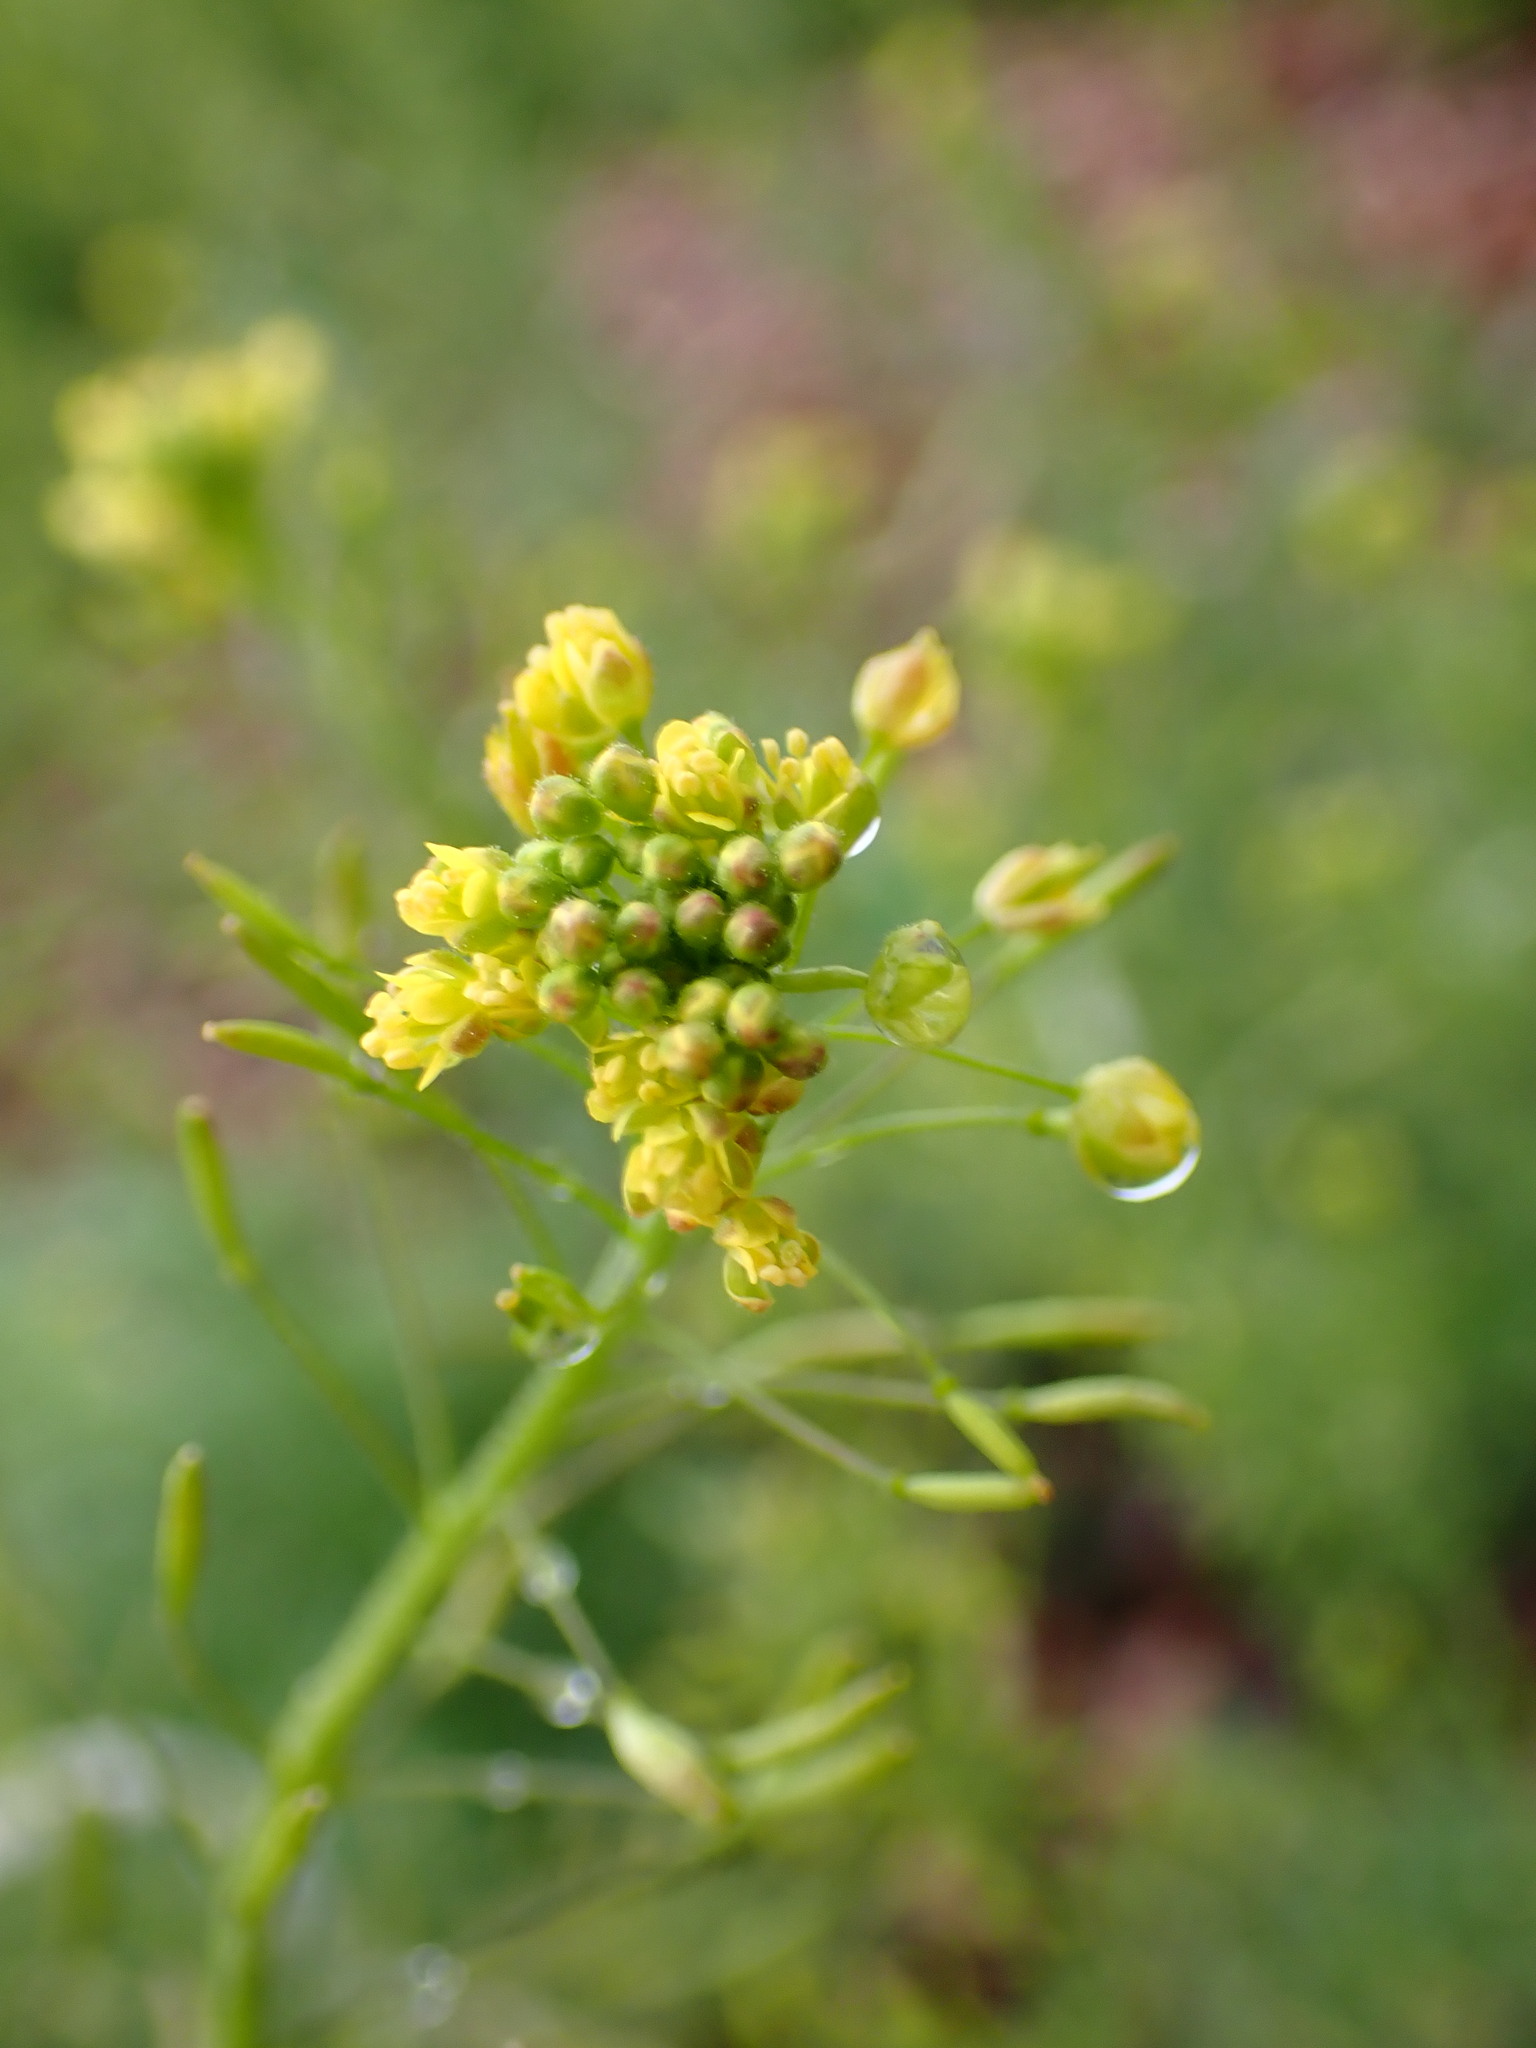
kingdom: Plantae
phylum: Tracheophyta
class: Magnoliopsida
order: Brassicales
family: Brassicaceae
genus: Descurainia
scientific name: Descurainia pinnata
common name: Western tansy mustard
